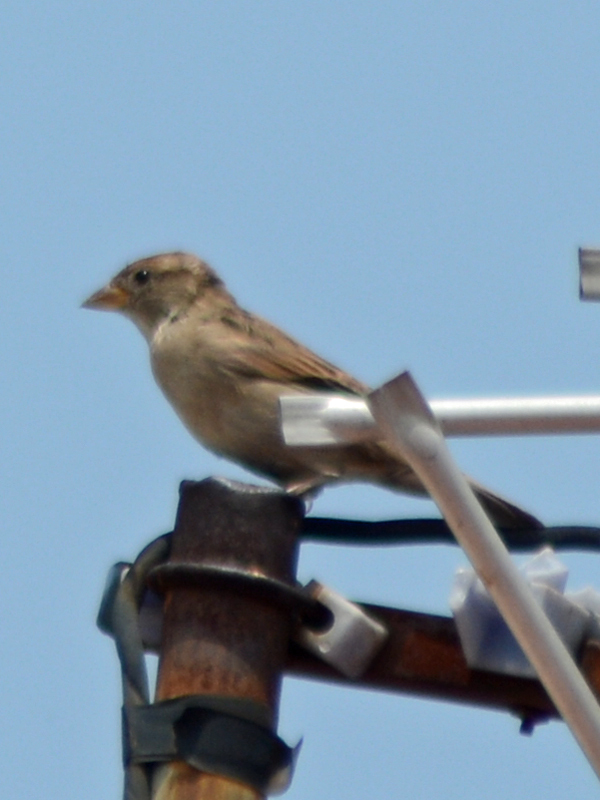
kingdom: Animalia
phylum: Chordata
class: Aves
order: Passeriformes
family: Passeridae
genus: Passer
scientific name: Passer domesticus
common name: House sparrow
